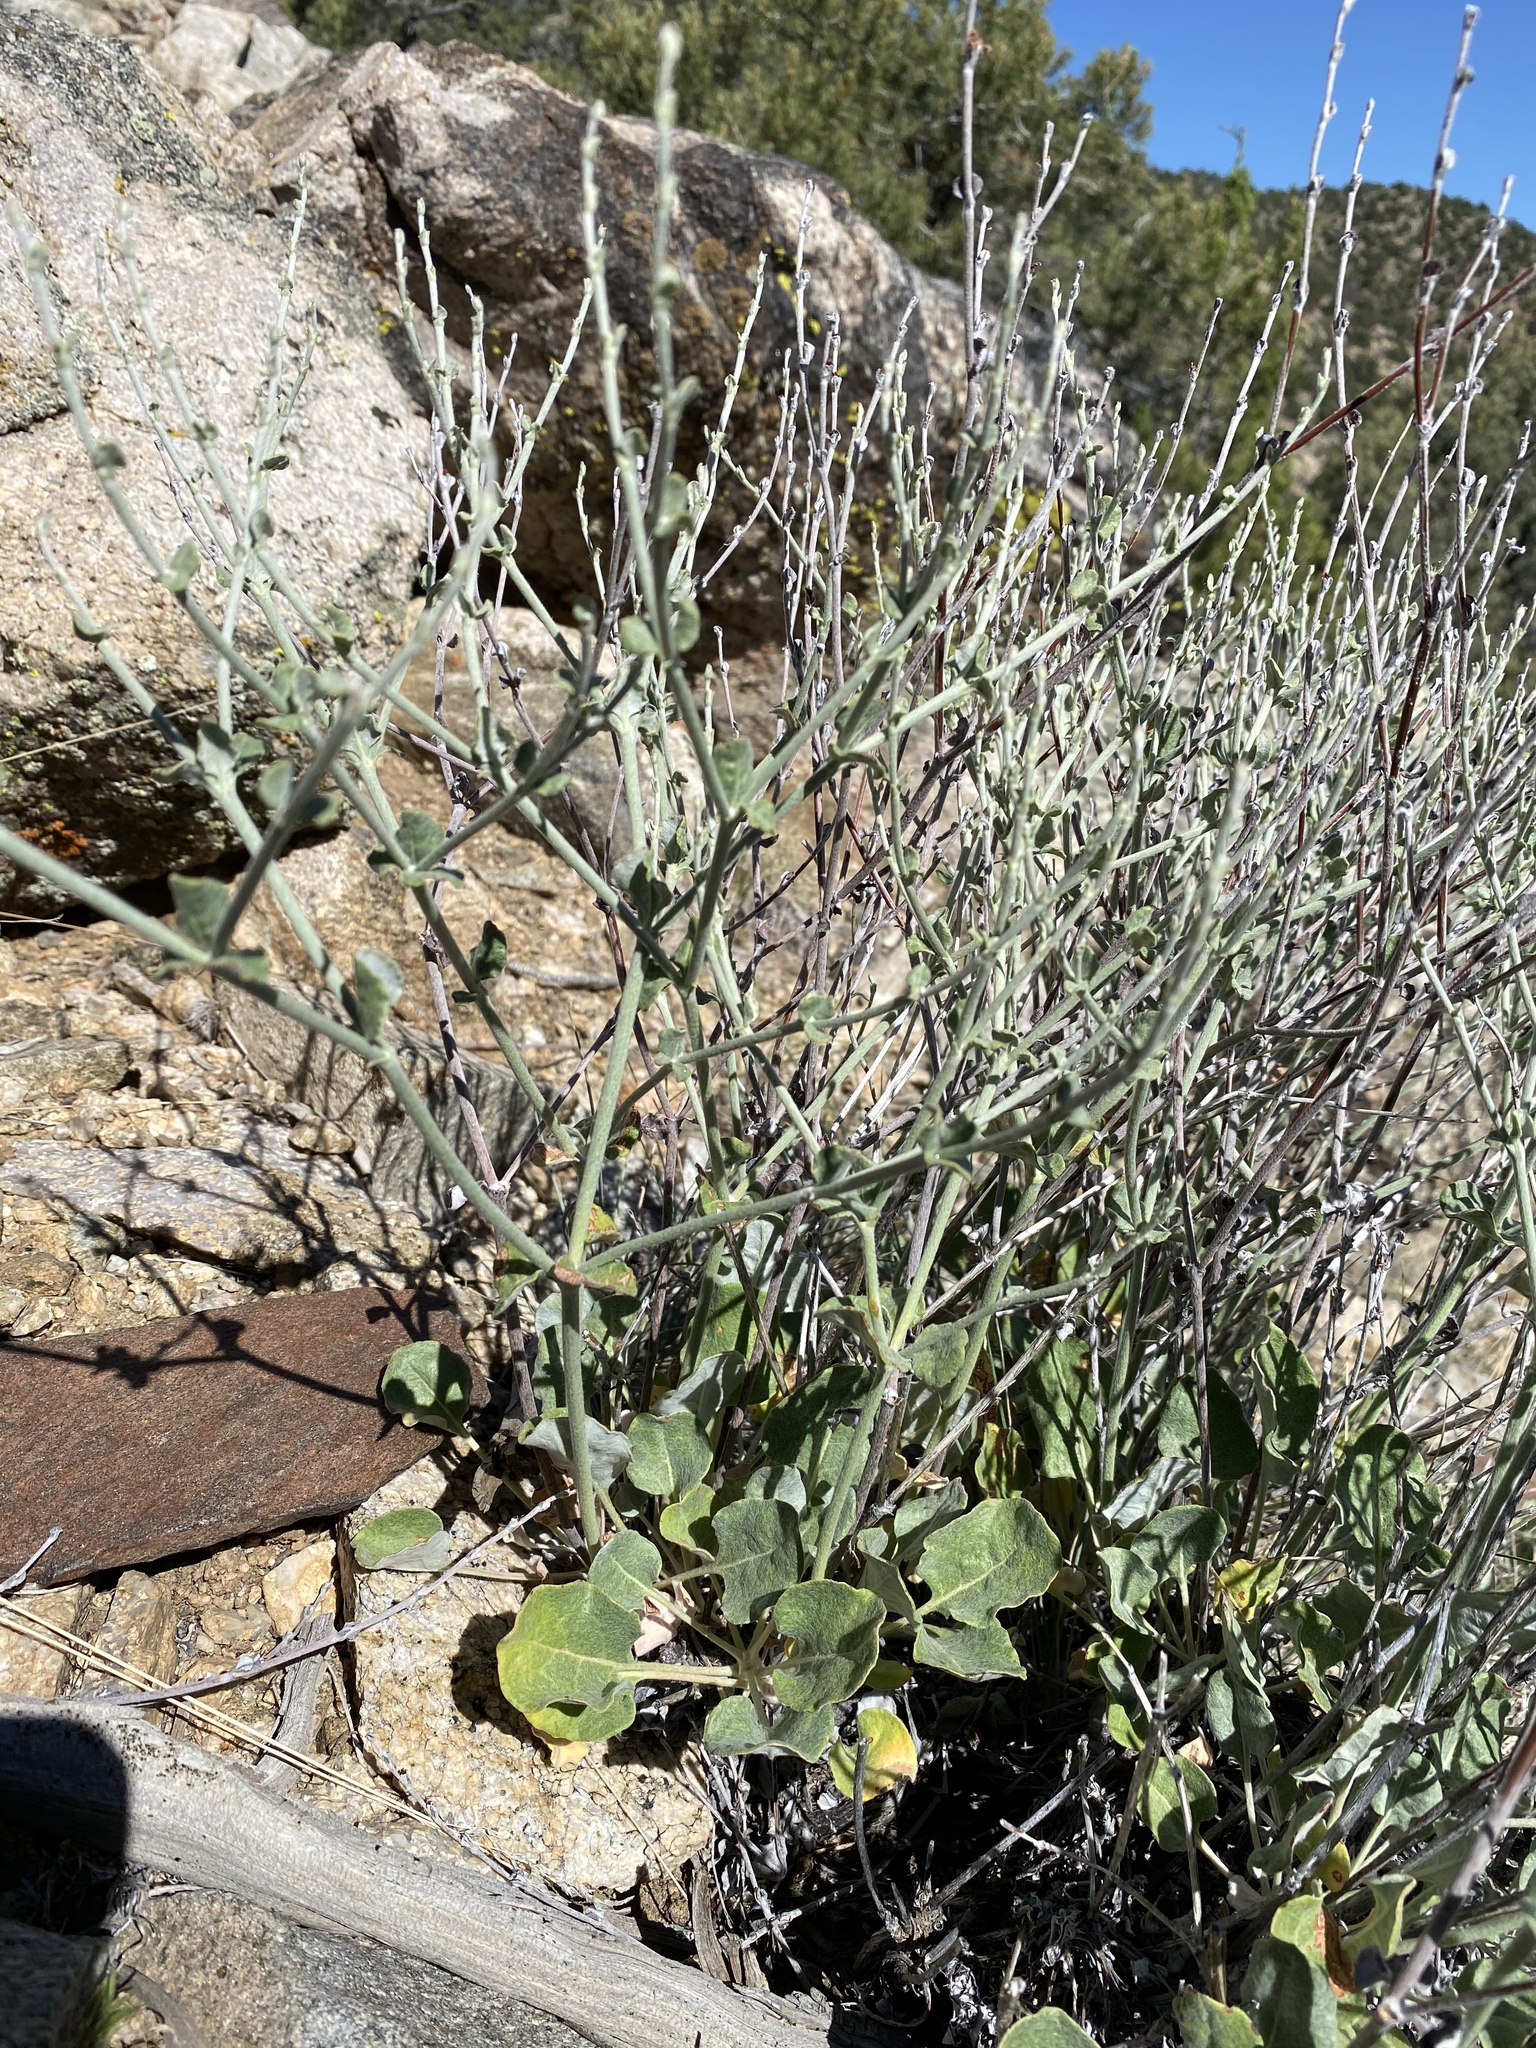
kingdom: Plantae
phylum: Tracheophyta
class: Magnoliopsida
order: Caryophyllales
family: Polygonaceae
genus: Eriogonum
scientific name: Eriogonum panamintense
